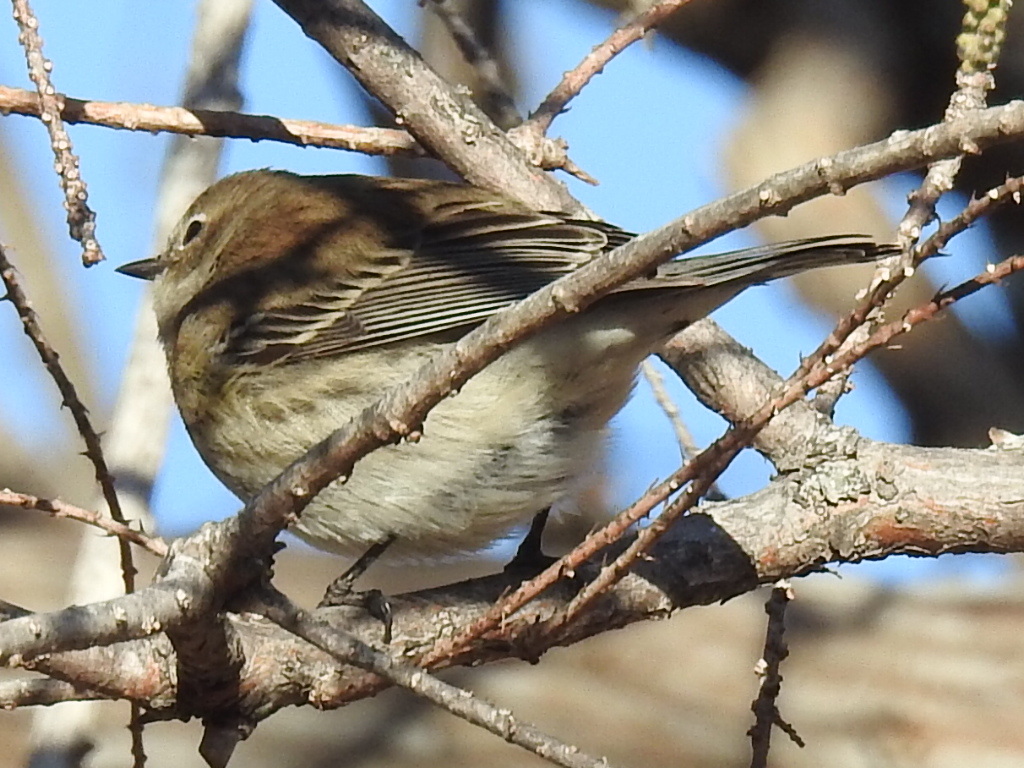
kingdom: Animalia
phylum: Chordata
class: Aves
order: Passeriformes
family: Parulidae
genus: Setophaga
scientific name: Setophaga coronata
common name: Myrtle warbler
